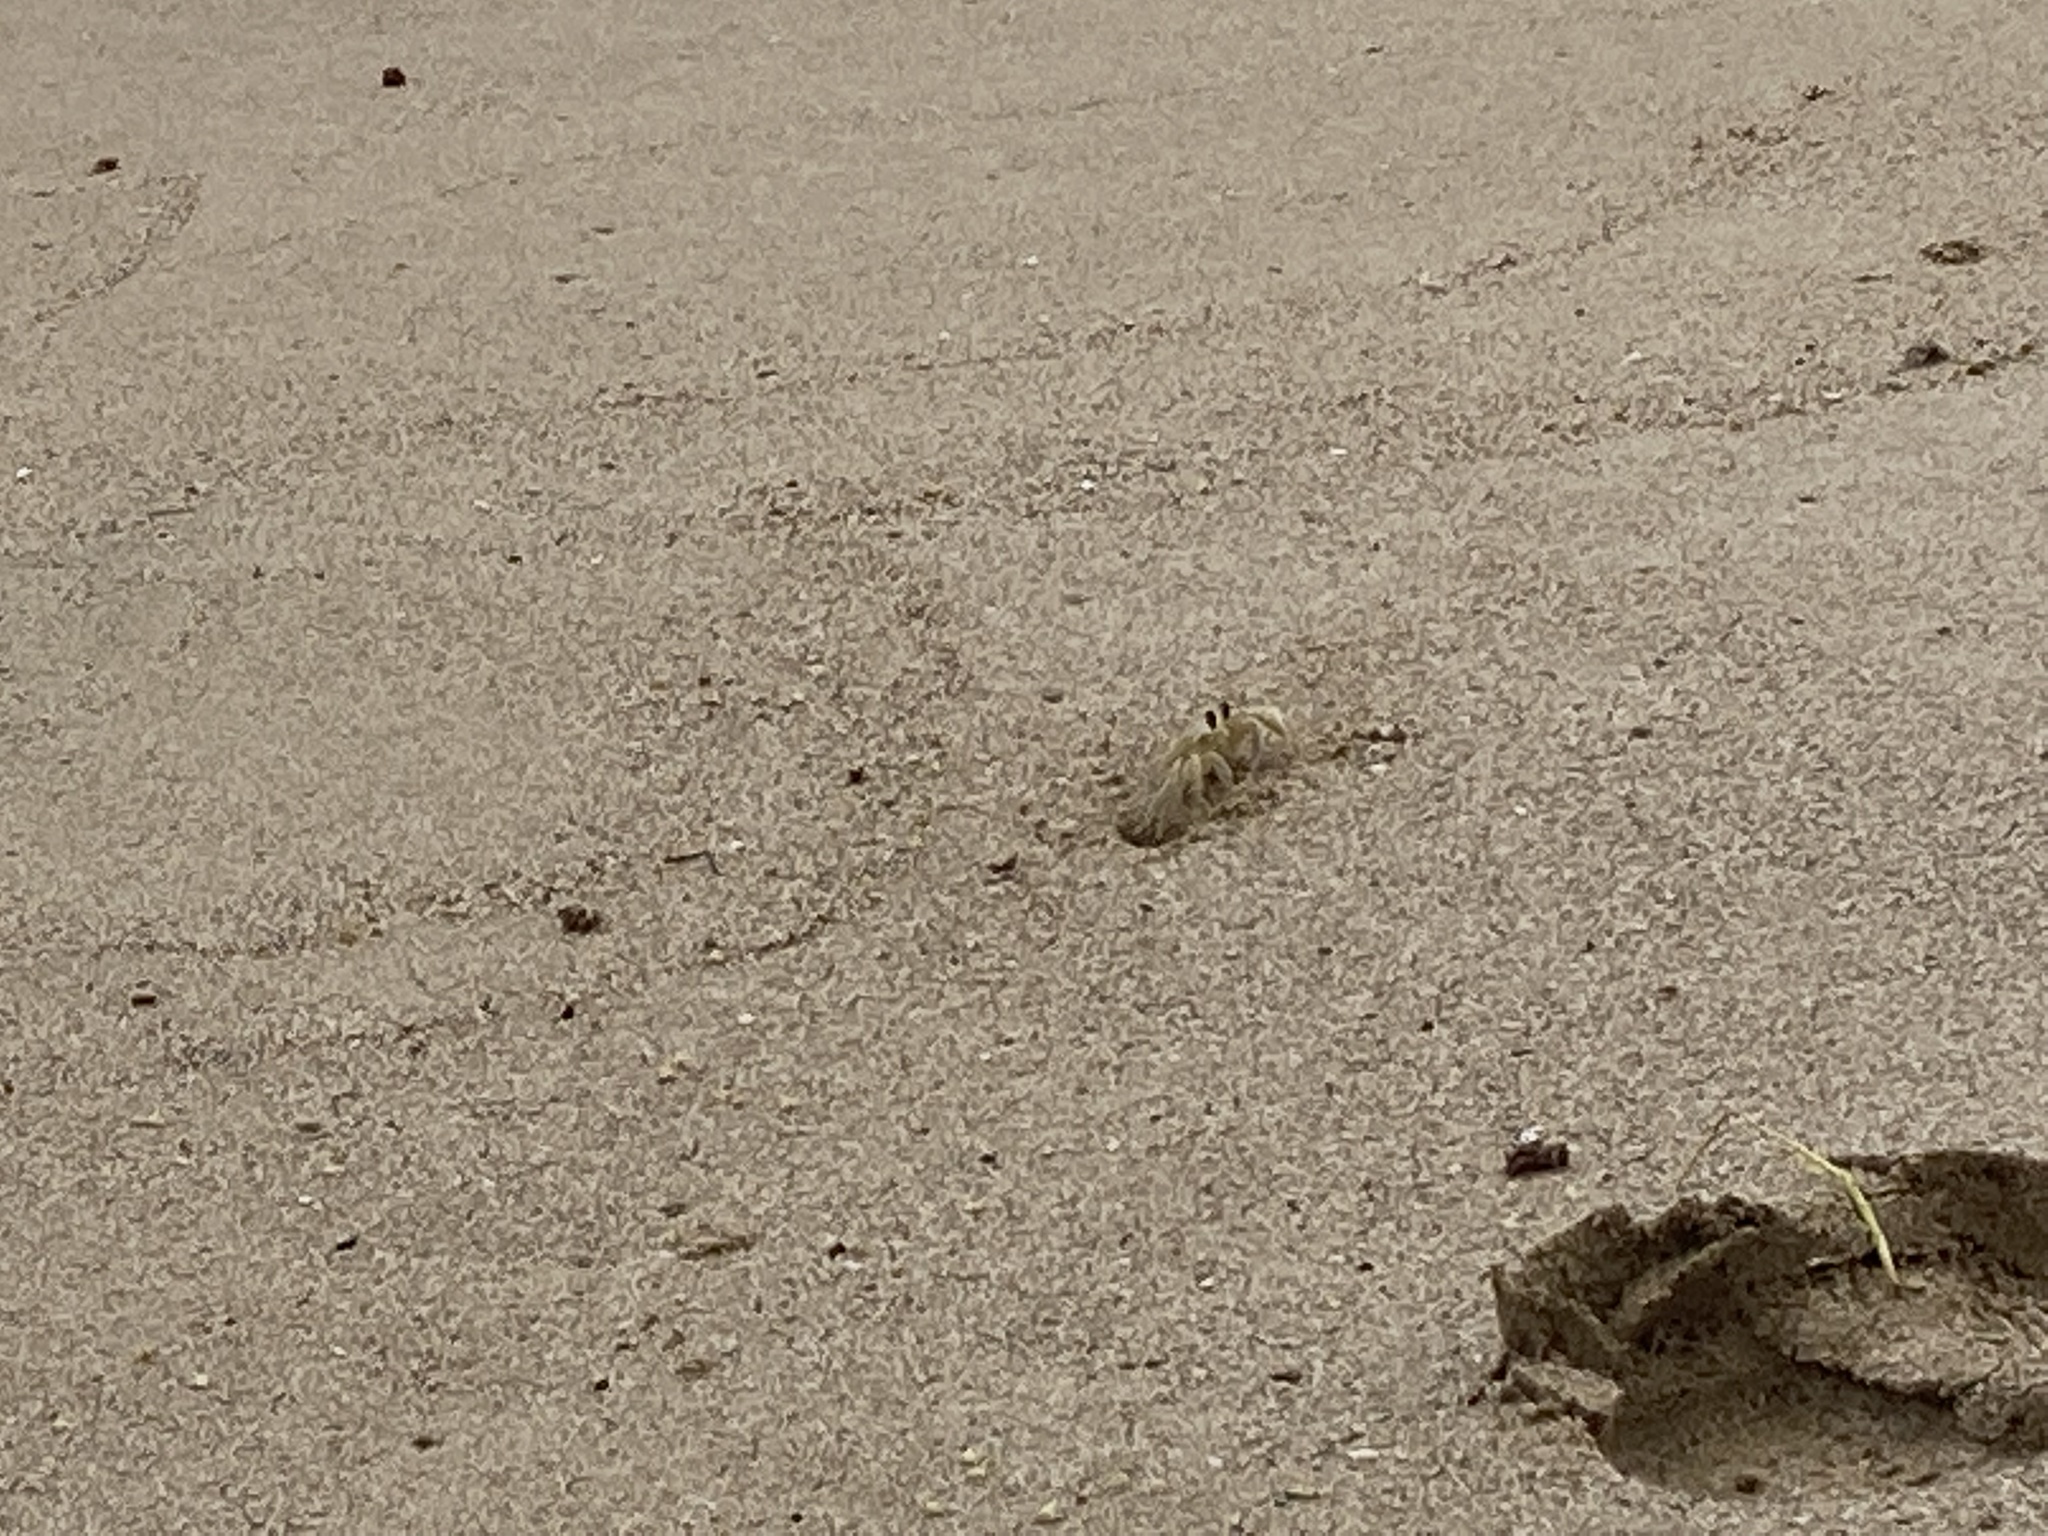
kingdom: Animalia
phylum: Arthropoda
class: Malacostraca
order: Decapoda
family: Ocypodidae
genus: Ocypode
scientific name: Ocypode quadrata
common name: Ghost crab
